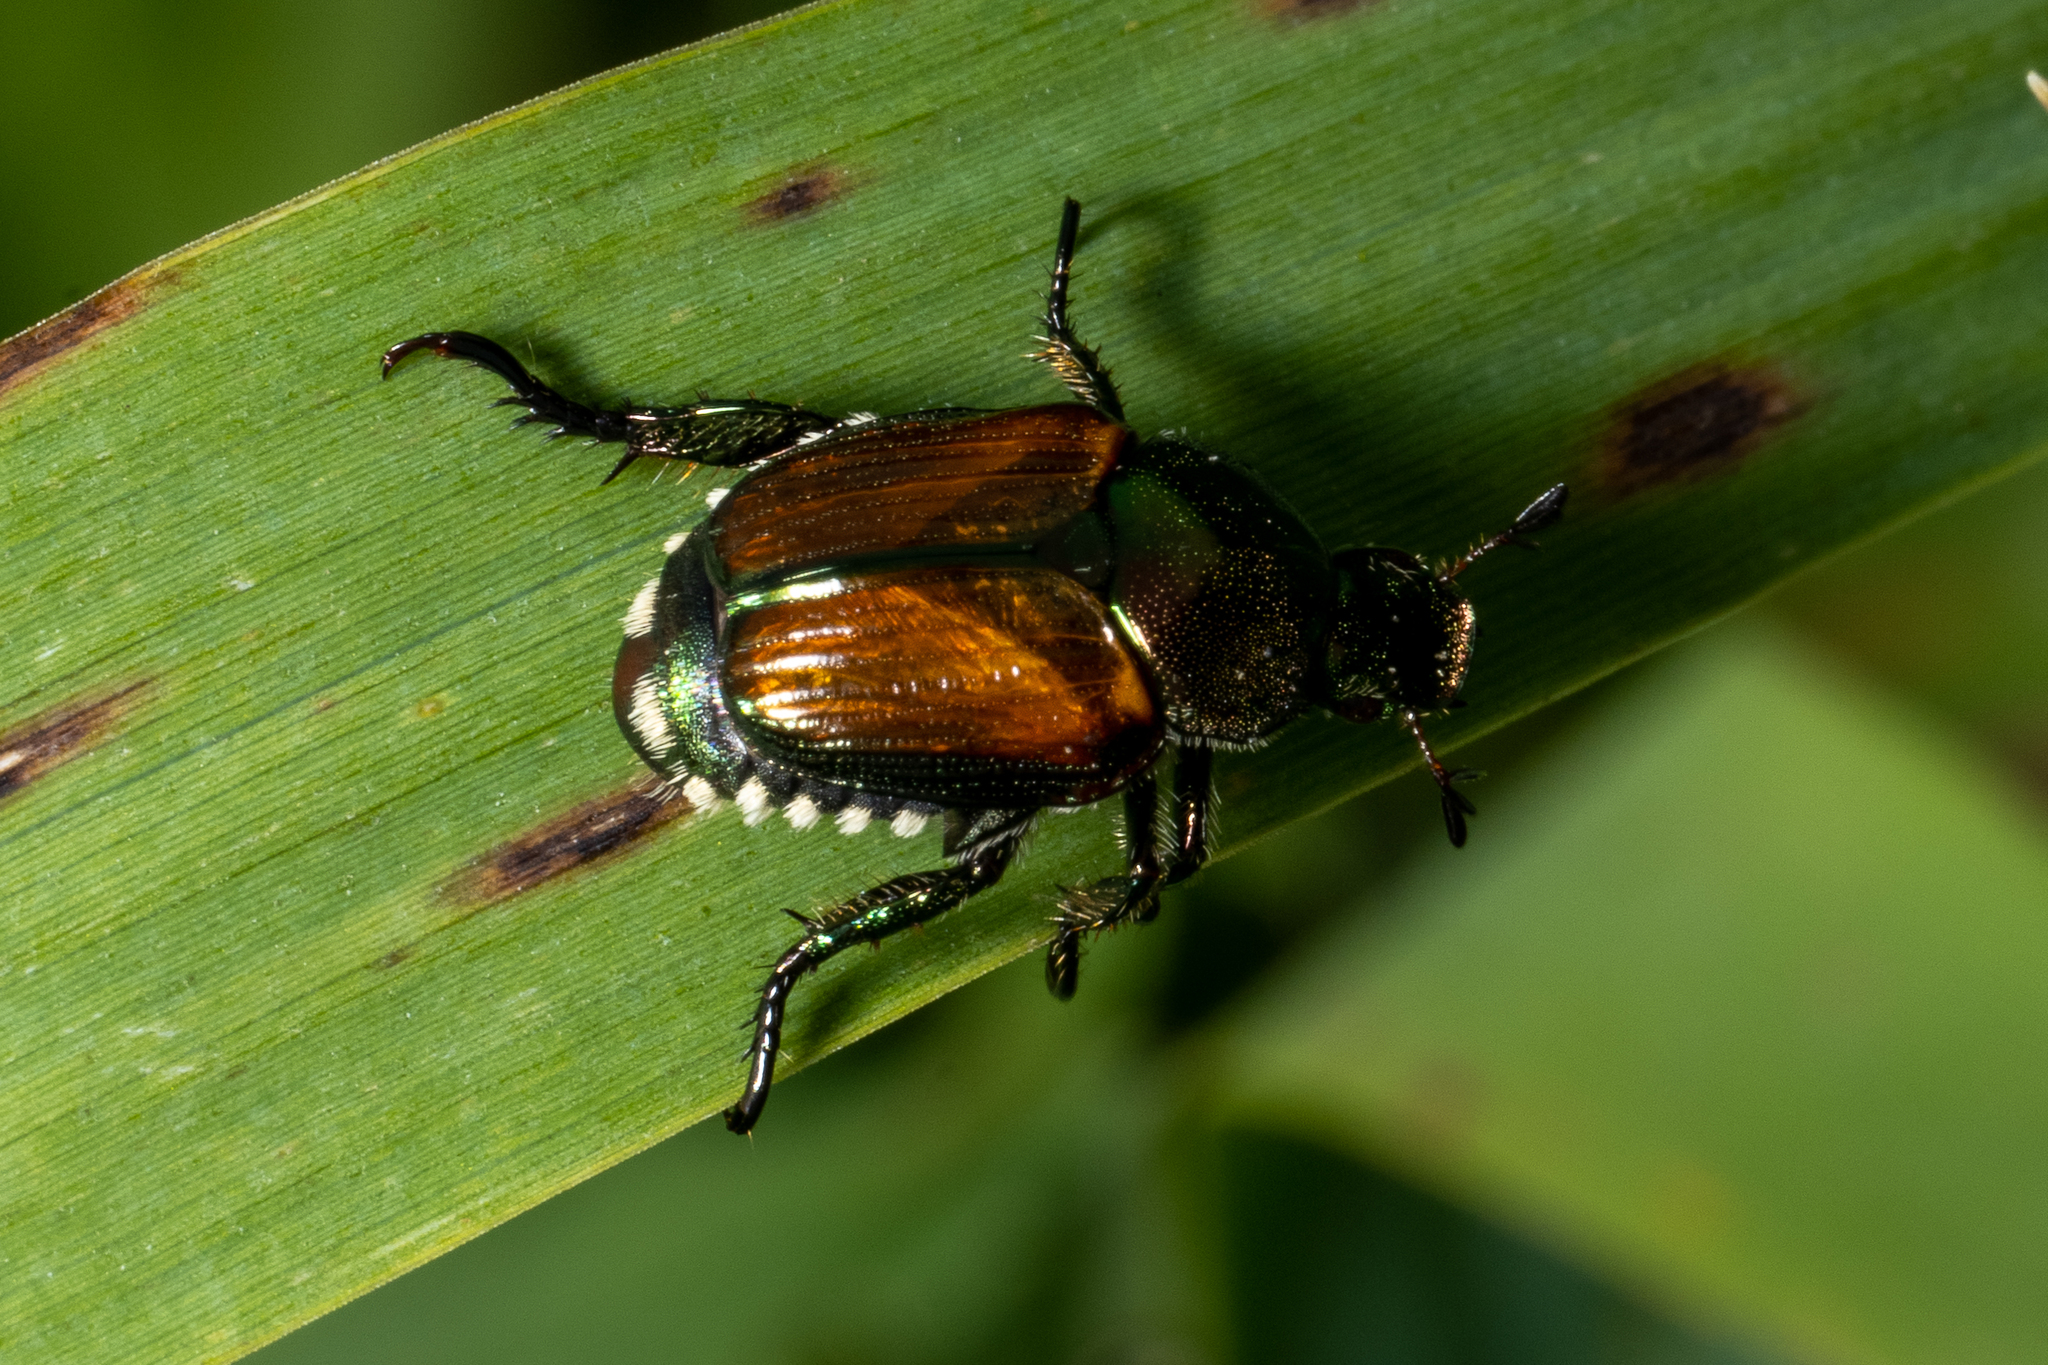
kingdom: Animalia
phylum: Arthropoda
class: Insecta
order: Coleoptera
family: Scarabaeidae
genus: Popillia
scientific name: Popillia japonica
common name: Japanese beetle
